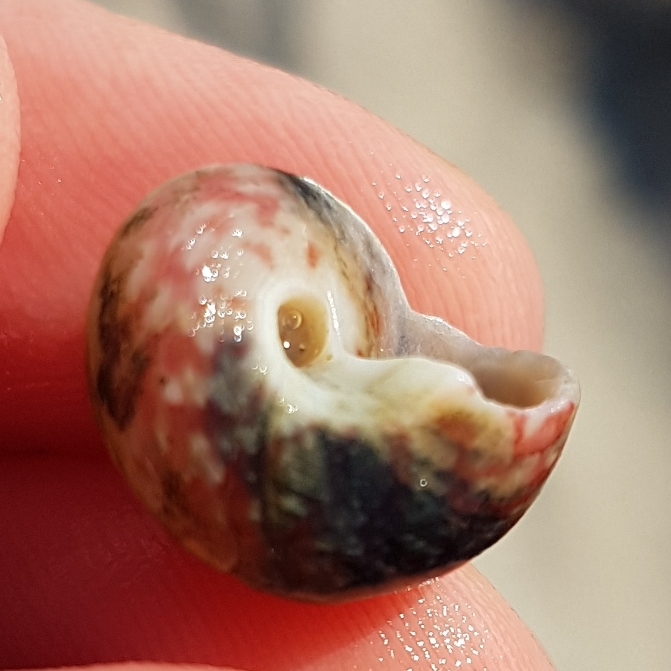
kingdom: Animalia
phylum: Mollusca
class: Gastropoda
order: Trochida
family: Trochidae
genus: Gibbula
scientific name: Gibbula magus
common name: Turban top shell
